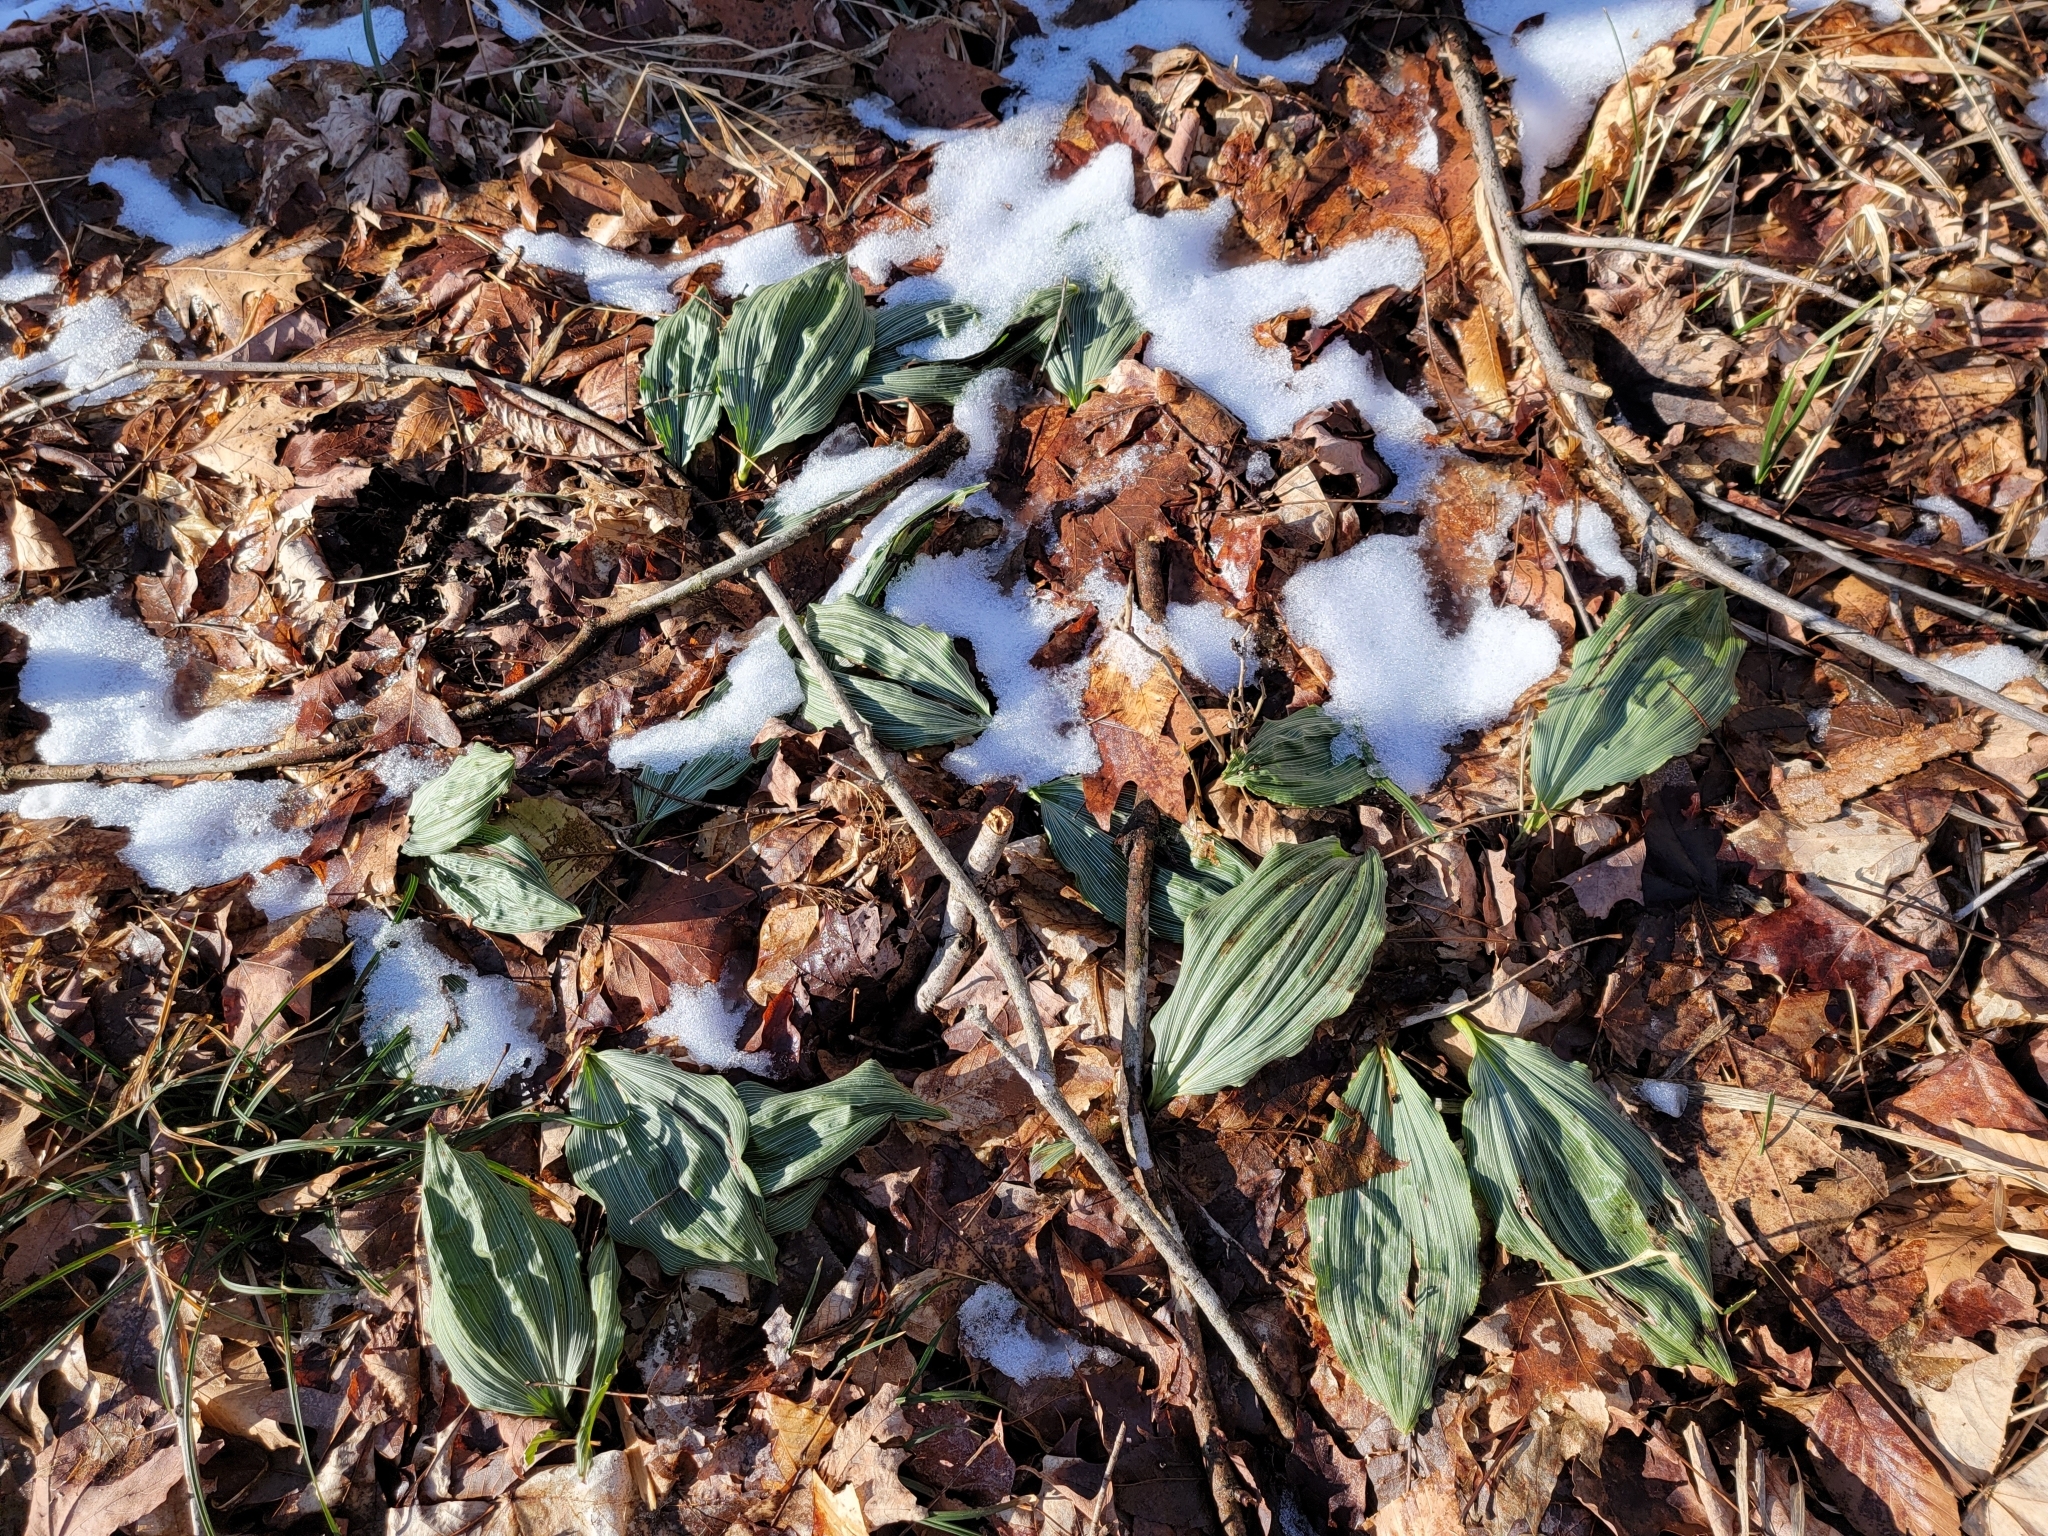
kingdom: Plantae
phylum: Tracheophyta
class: Liliopsida
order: Asparagales
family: Orchidaceae
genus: Aplectrum
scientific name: Aplectrum hyemale
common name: Adam-and-eve
